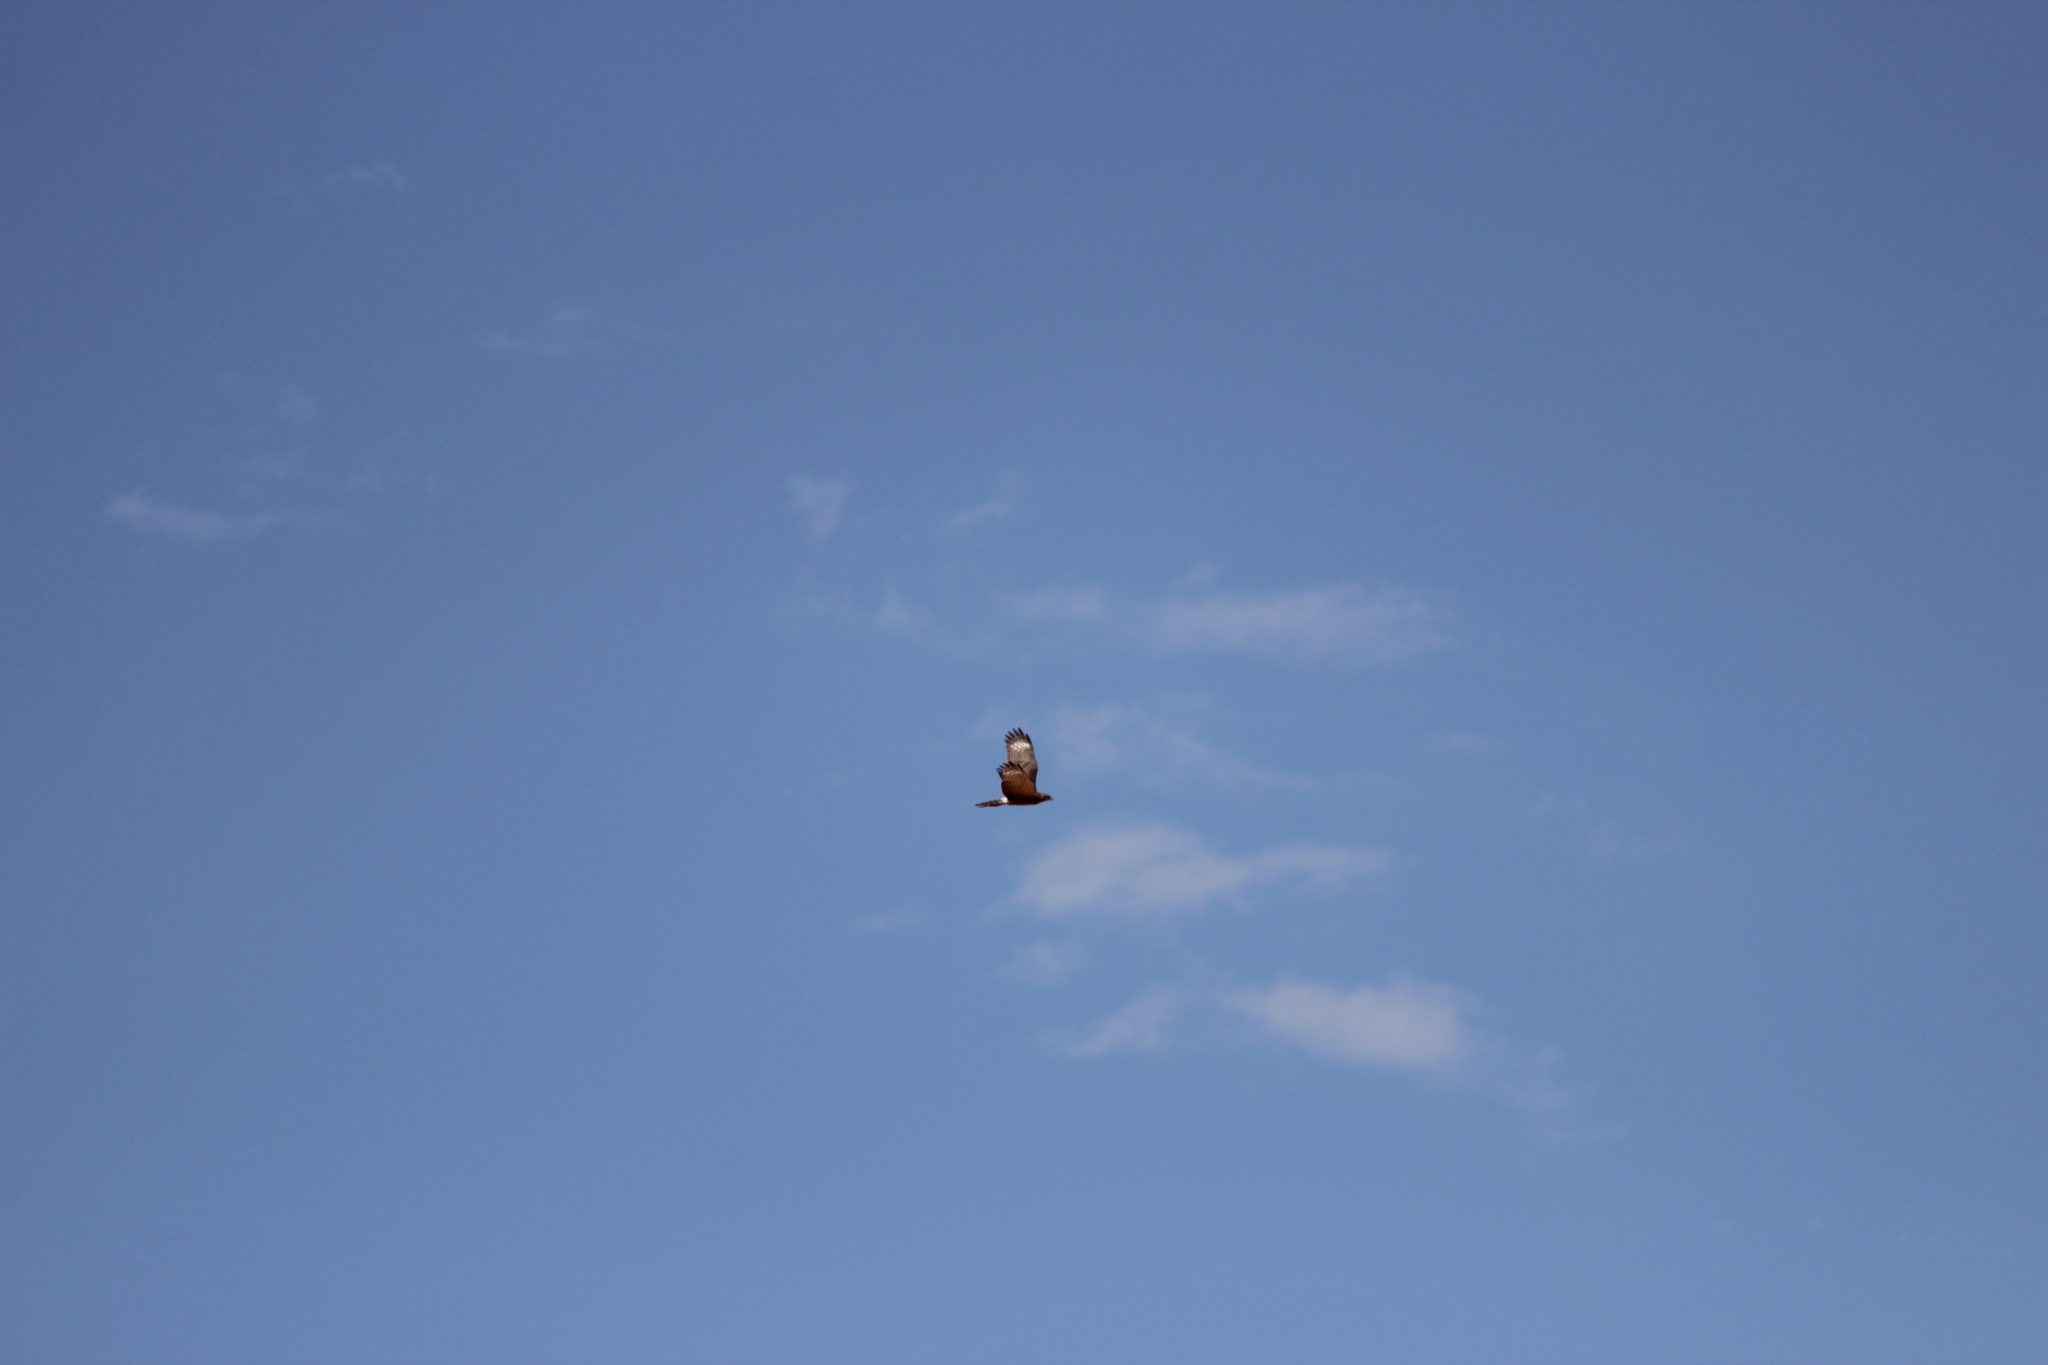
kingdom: Animalia
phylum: Chordata
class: Aves
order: Accipitriformes
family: Accipitridae
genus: Melierax
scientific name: Melierax canorus
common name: Pale chanting-goshawk
